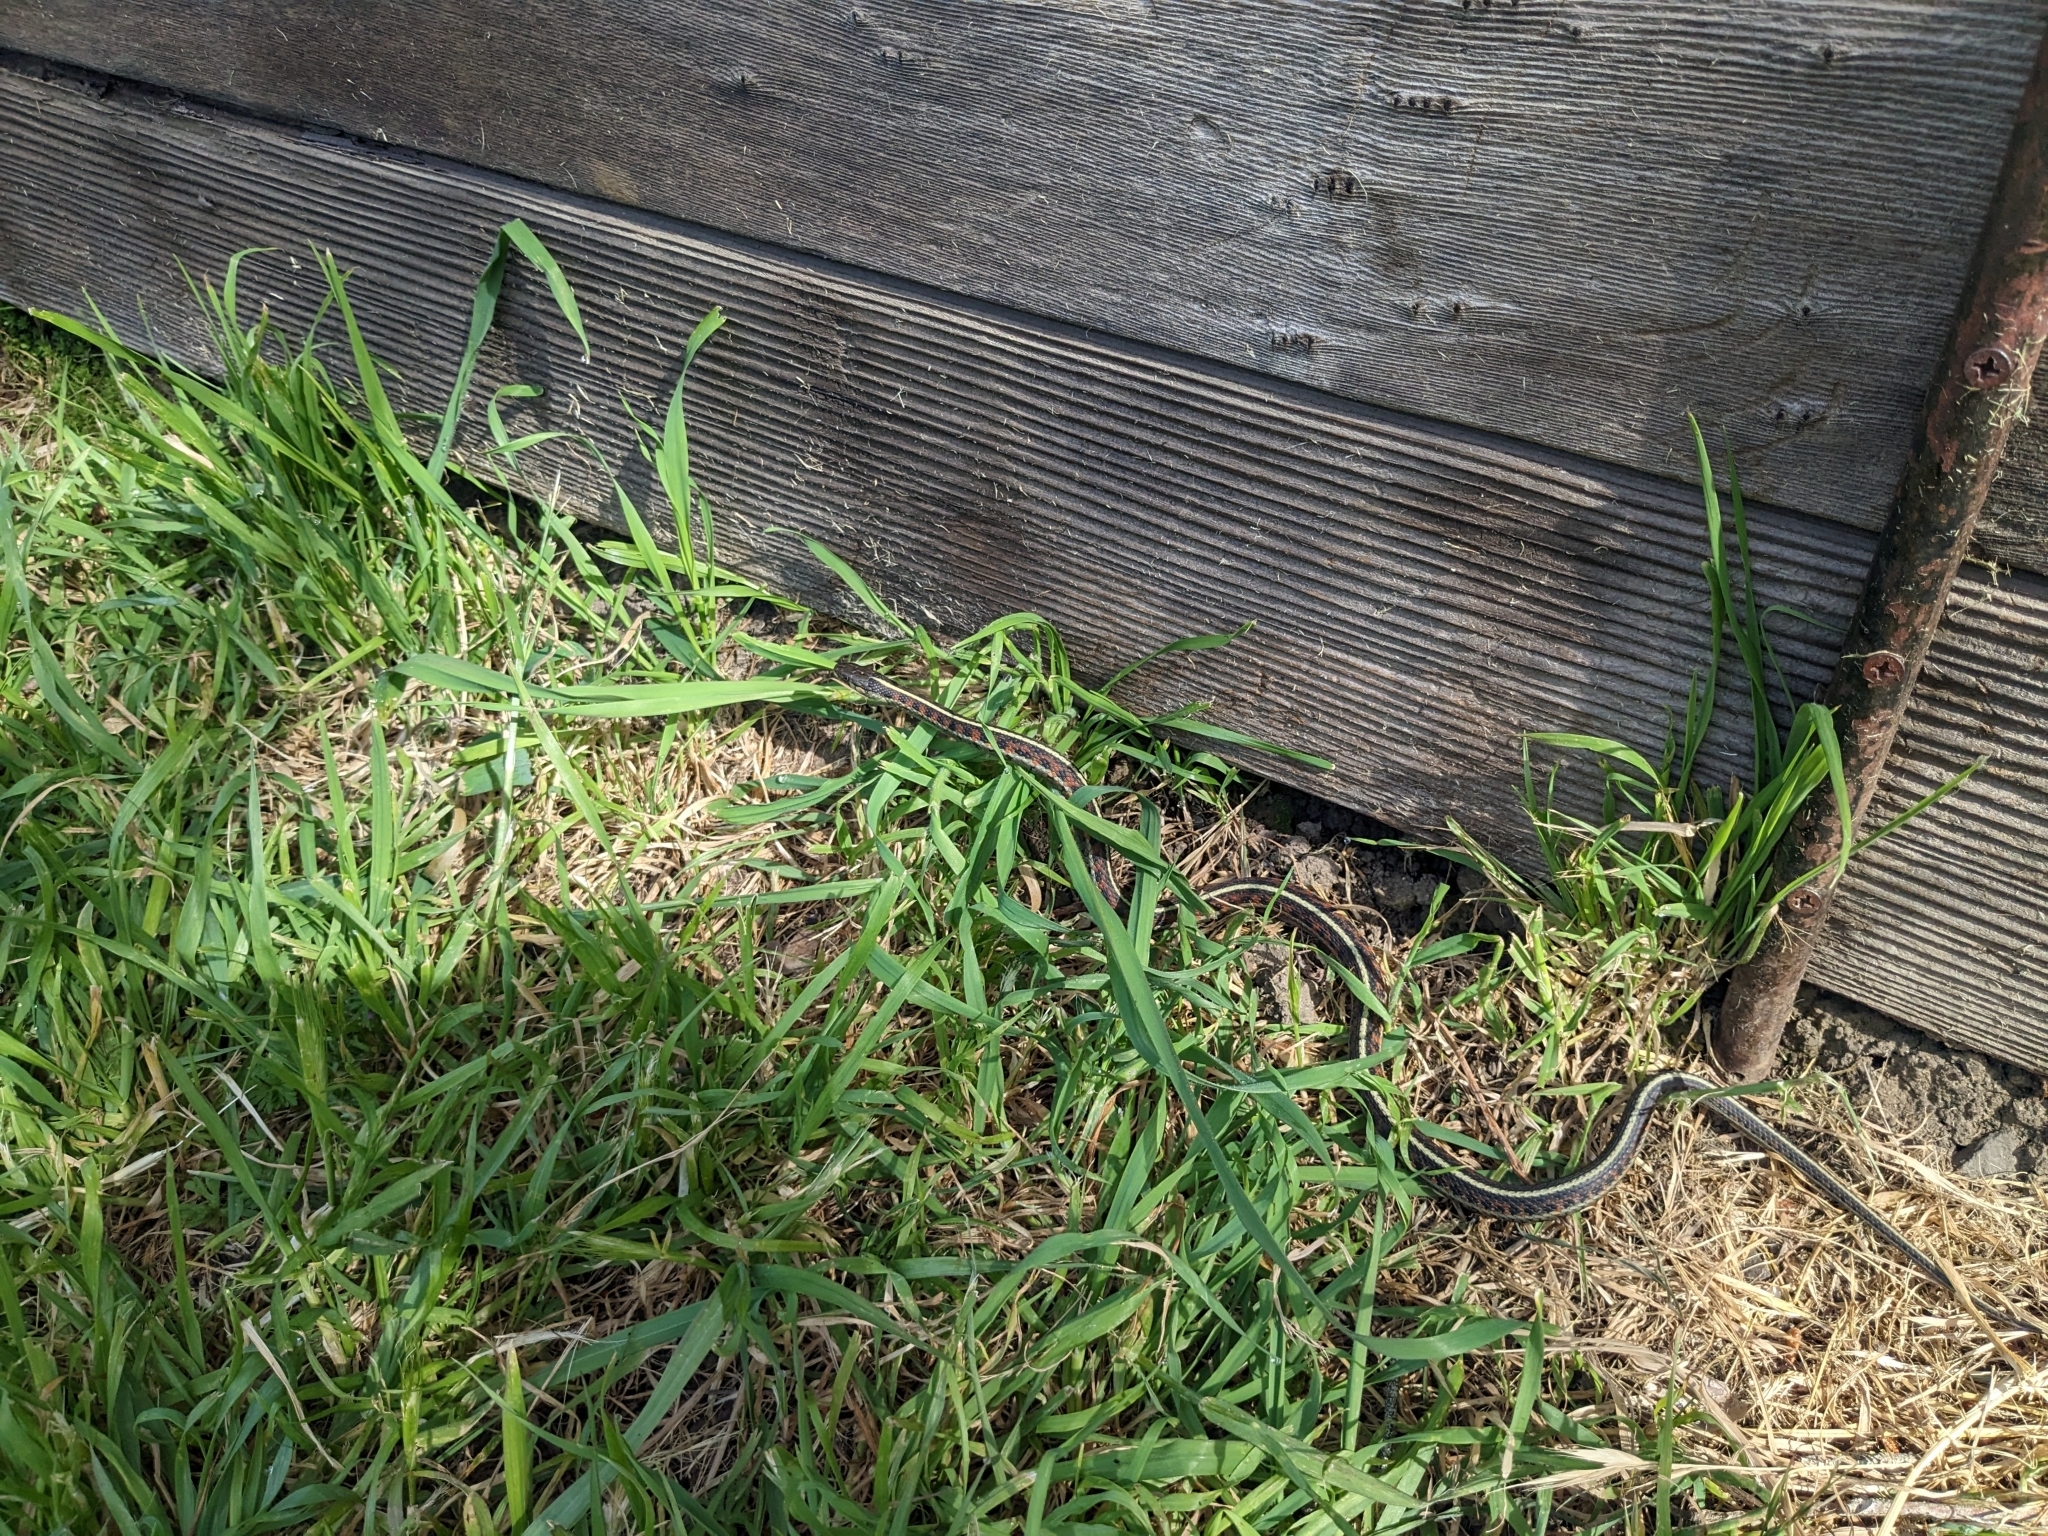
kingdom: Animalia
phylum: Chordata
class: Squamata
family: Colubridae
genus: Thamnophis
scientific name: Thamnophis elegans
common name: Western terrestrial garter snake
